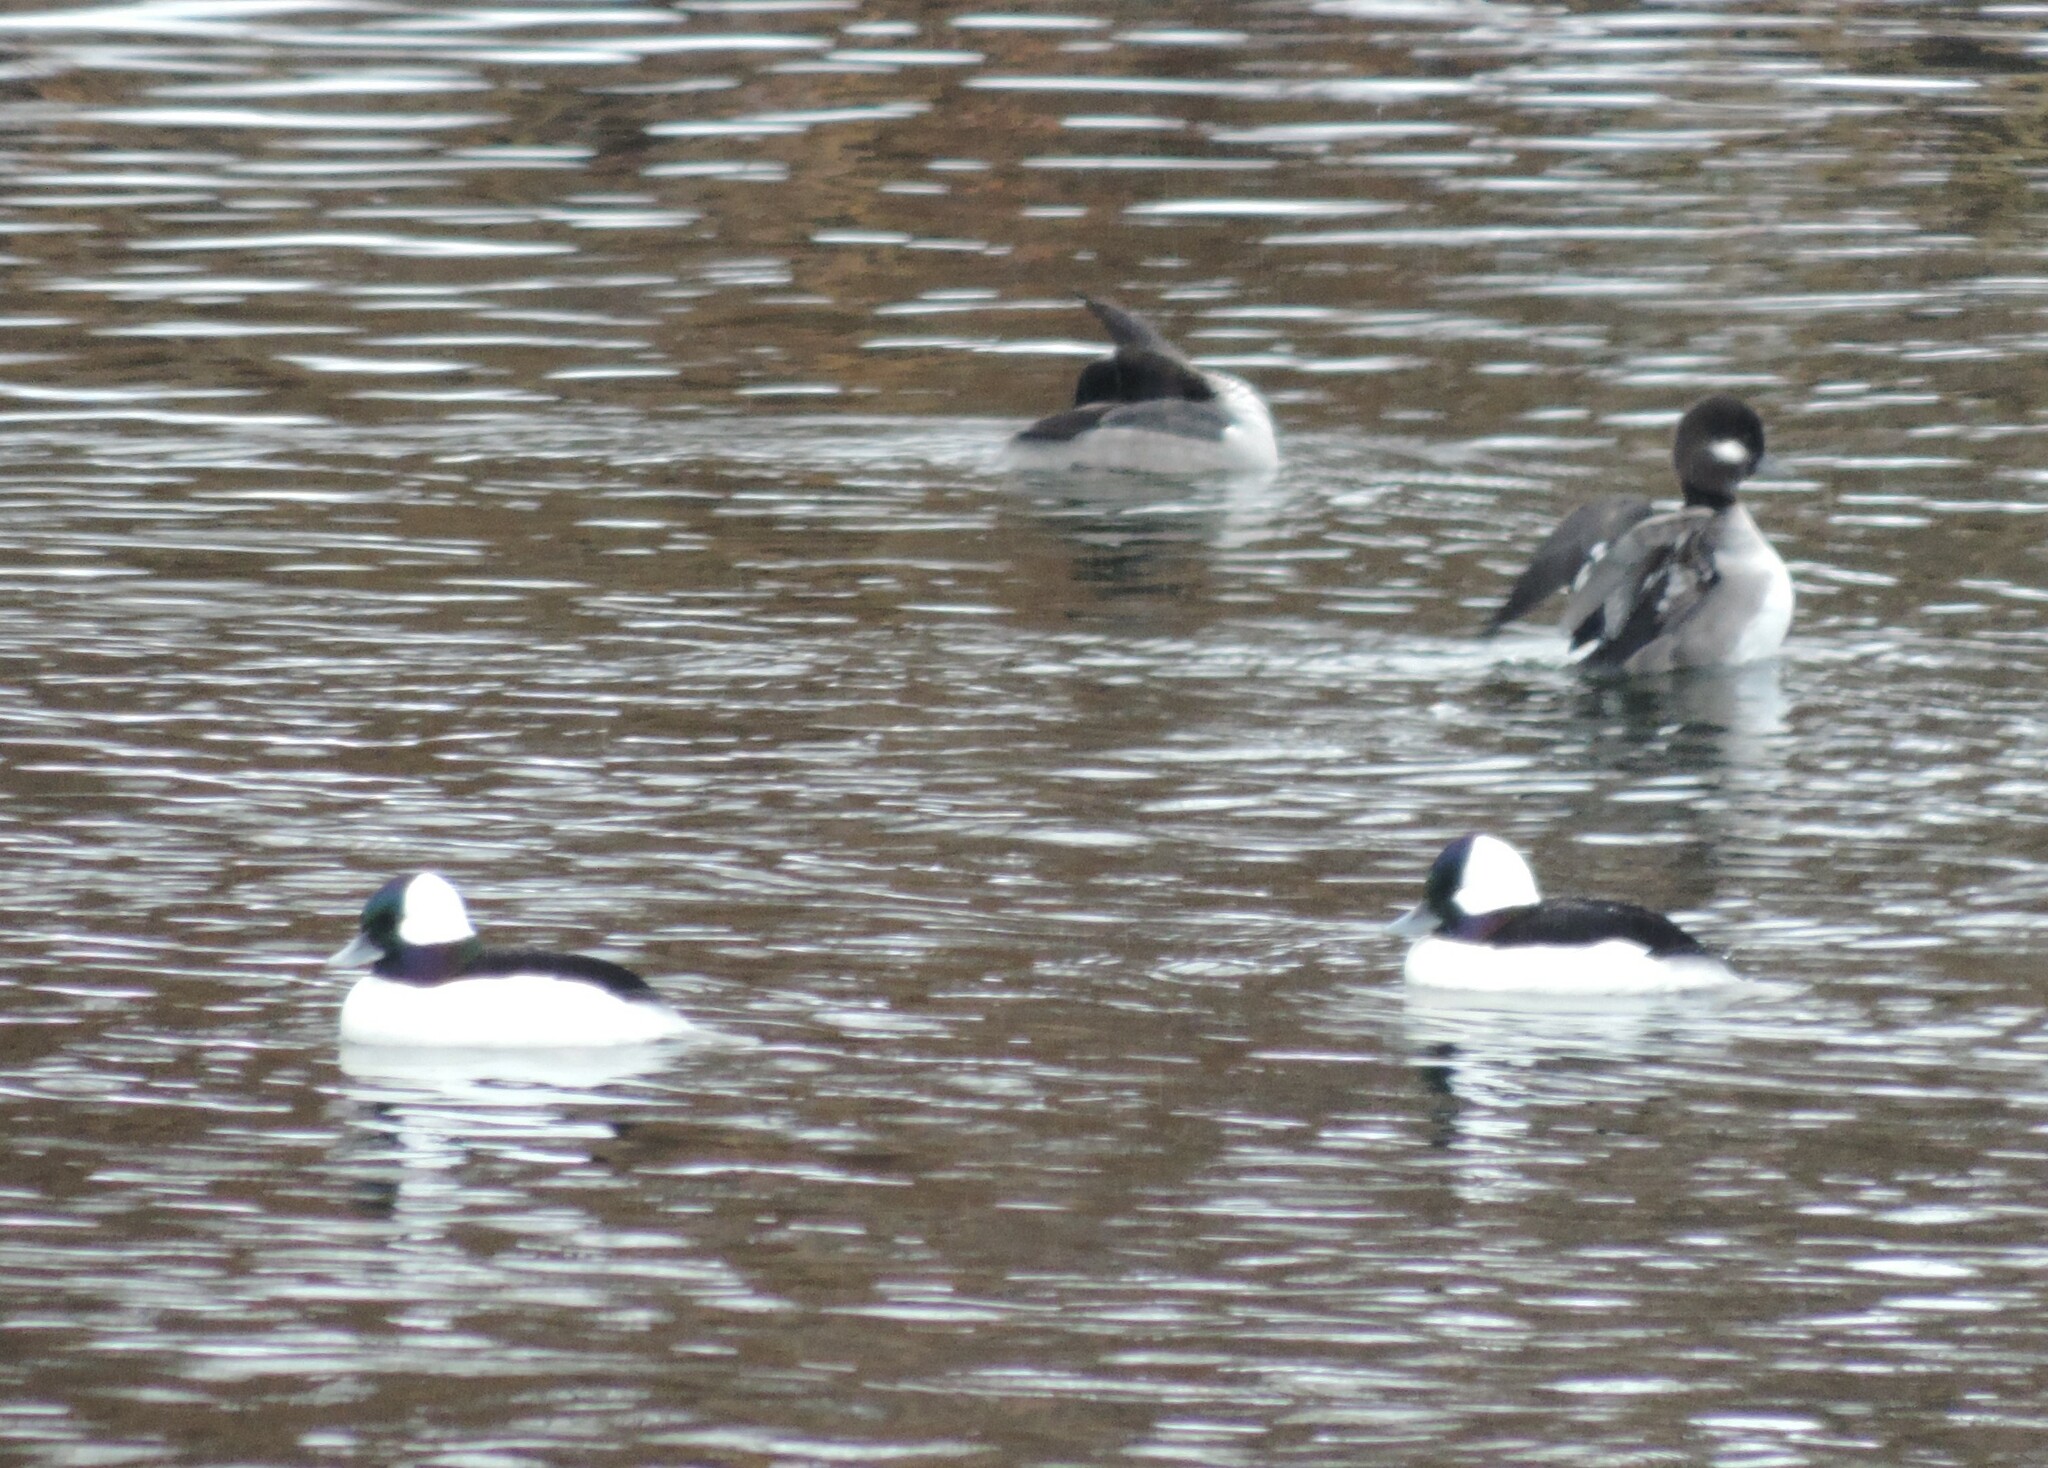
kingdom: Animalia
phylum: Chordata
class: Aves
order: Anseriformes
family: Anatidae
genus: Bucephala
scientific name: Bucephala albeola
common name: Bufflehead
